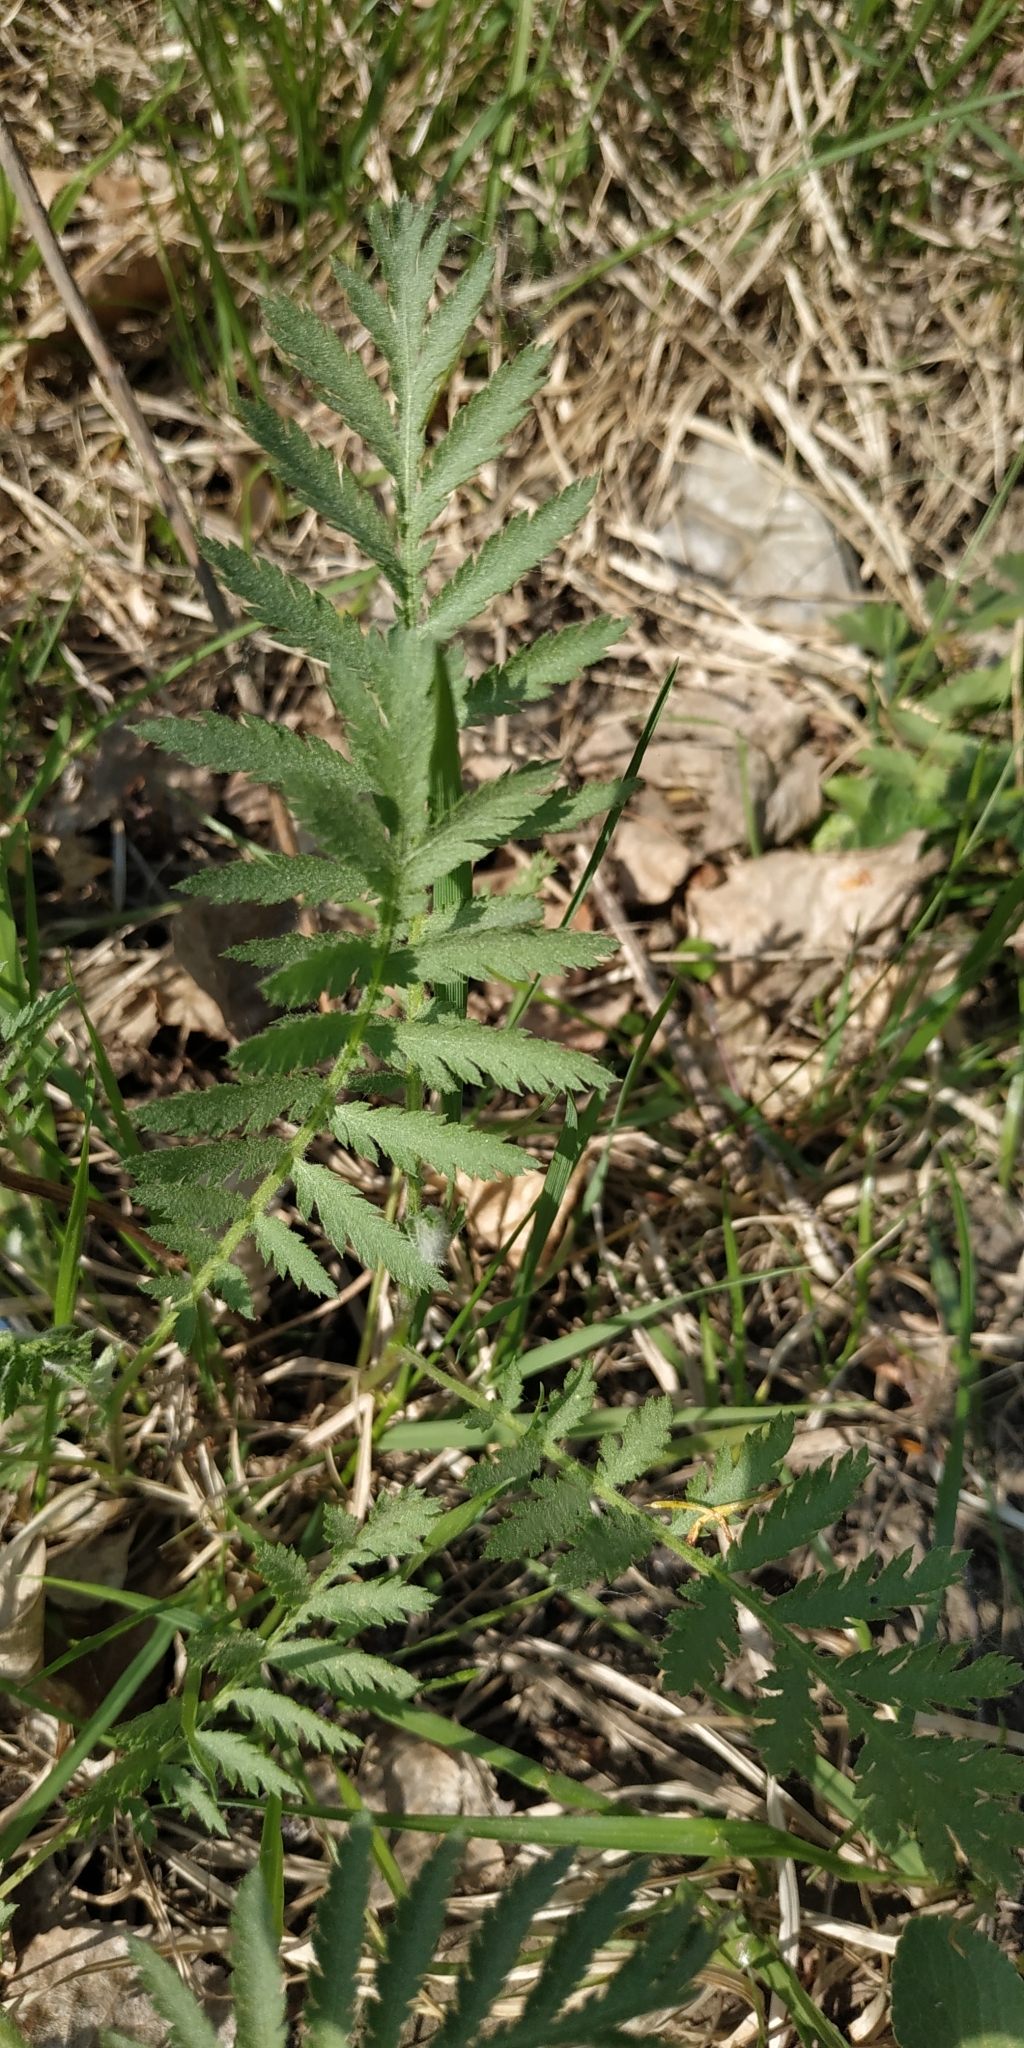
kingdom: Plantae
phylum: Tracheophyta
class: Magnoliopsida
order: Asterales
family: Asteraceae
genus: Tanacetum
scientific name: Tanacetum vulgare
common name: Common tansy
